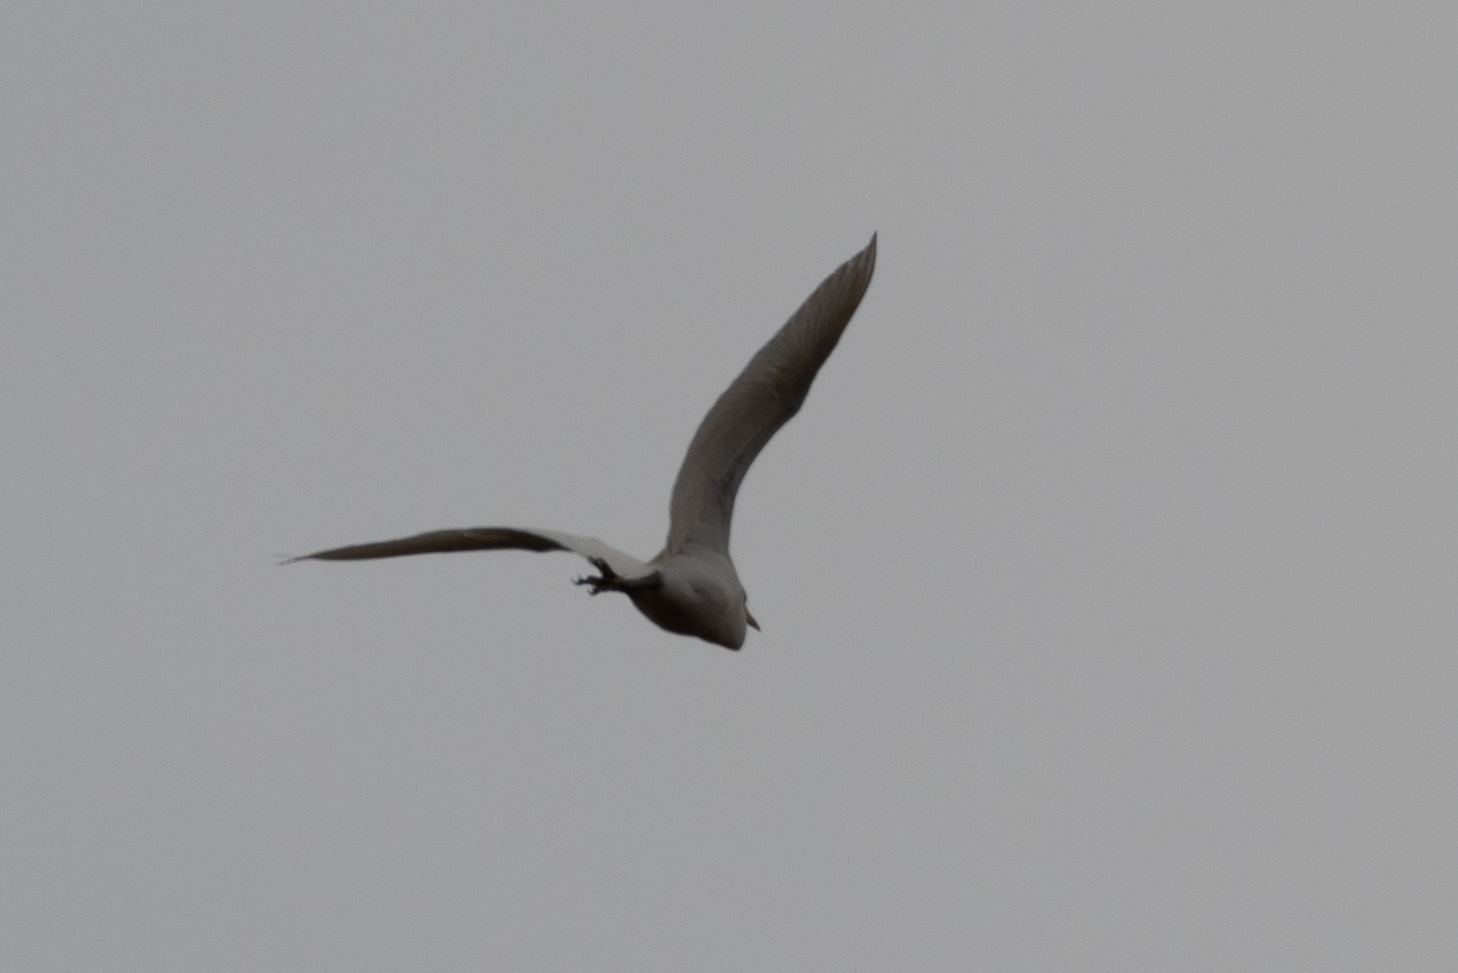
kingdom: Animalia
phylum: Chordata
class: Aves
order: Pelecaniformes
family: Ardeidae
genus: Bubulcus
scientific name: Bubulcus ibis
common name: Cattle egret
